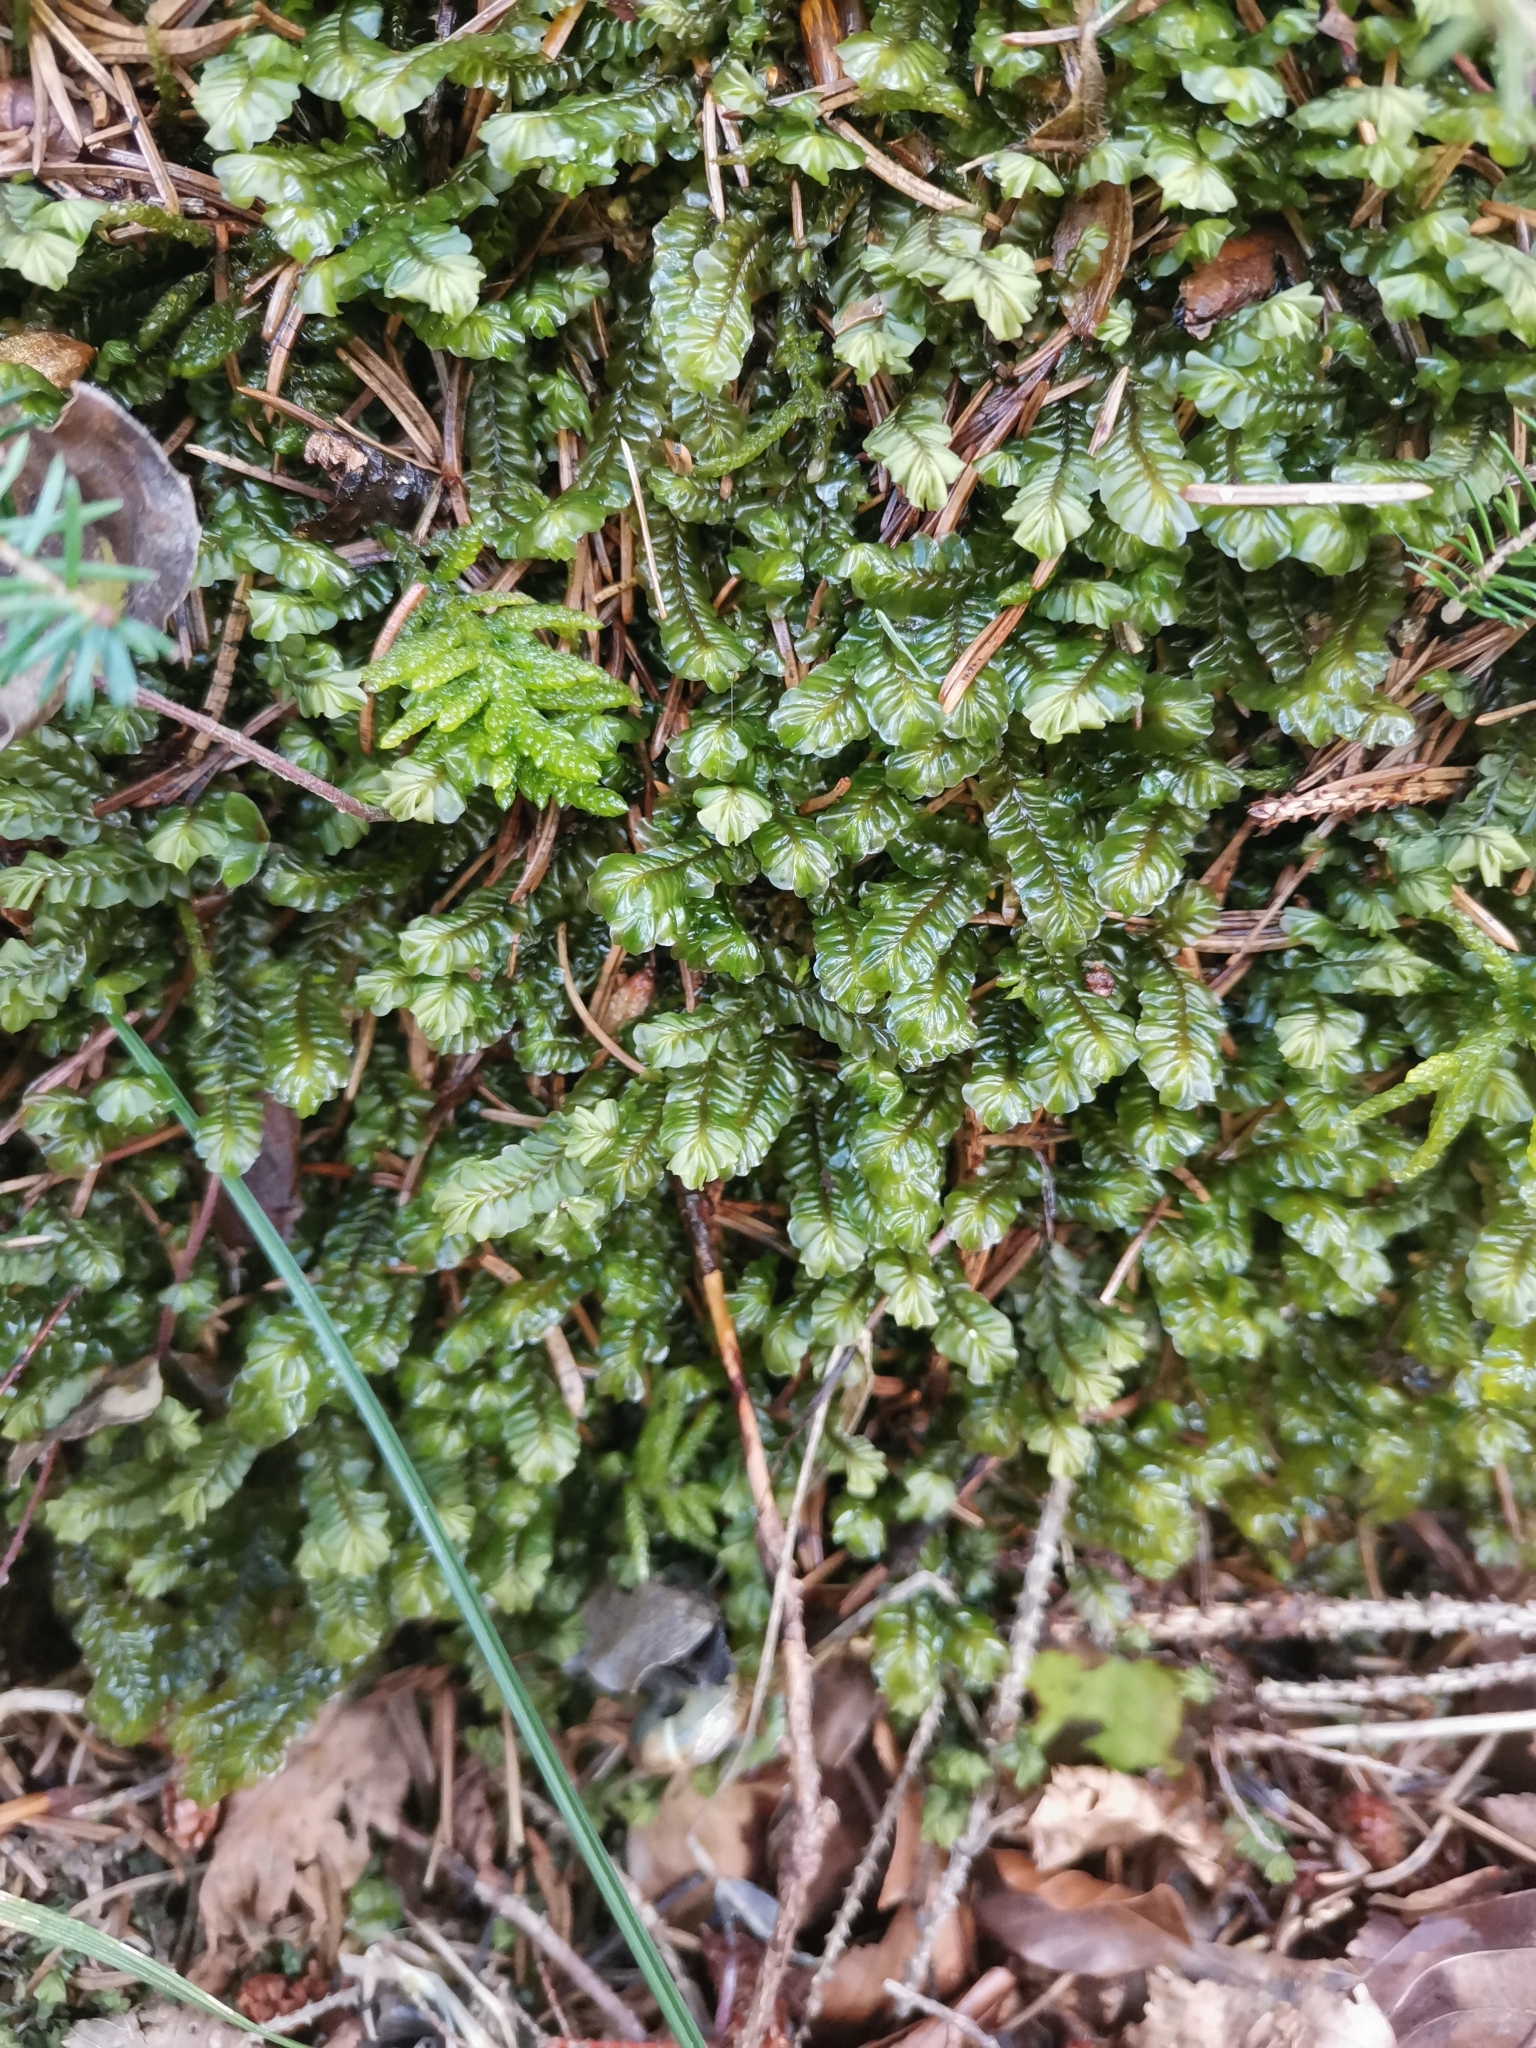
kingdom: Plantae
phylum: Marchantiophyta
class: Jungermanniopsida
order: Jungermanniales
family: Plagiochilaceae
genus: Plagiochila
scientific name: Plagiochila asplenioides
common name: Greater featherwort
